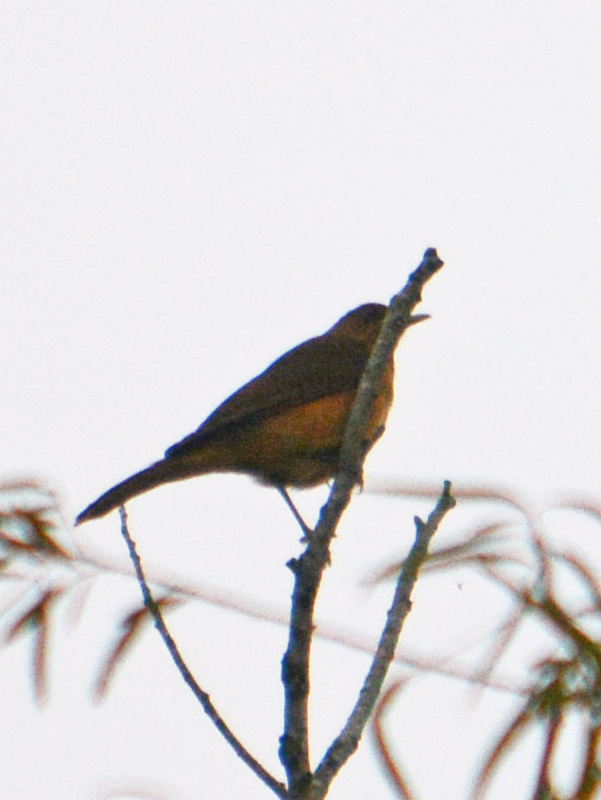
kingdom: Animalia
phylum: Chordata
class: Aves
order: Passeriformes
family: Turdidae
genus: Turdus
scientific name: Turdus grayi
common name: Clay-colored thrush
